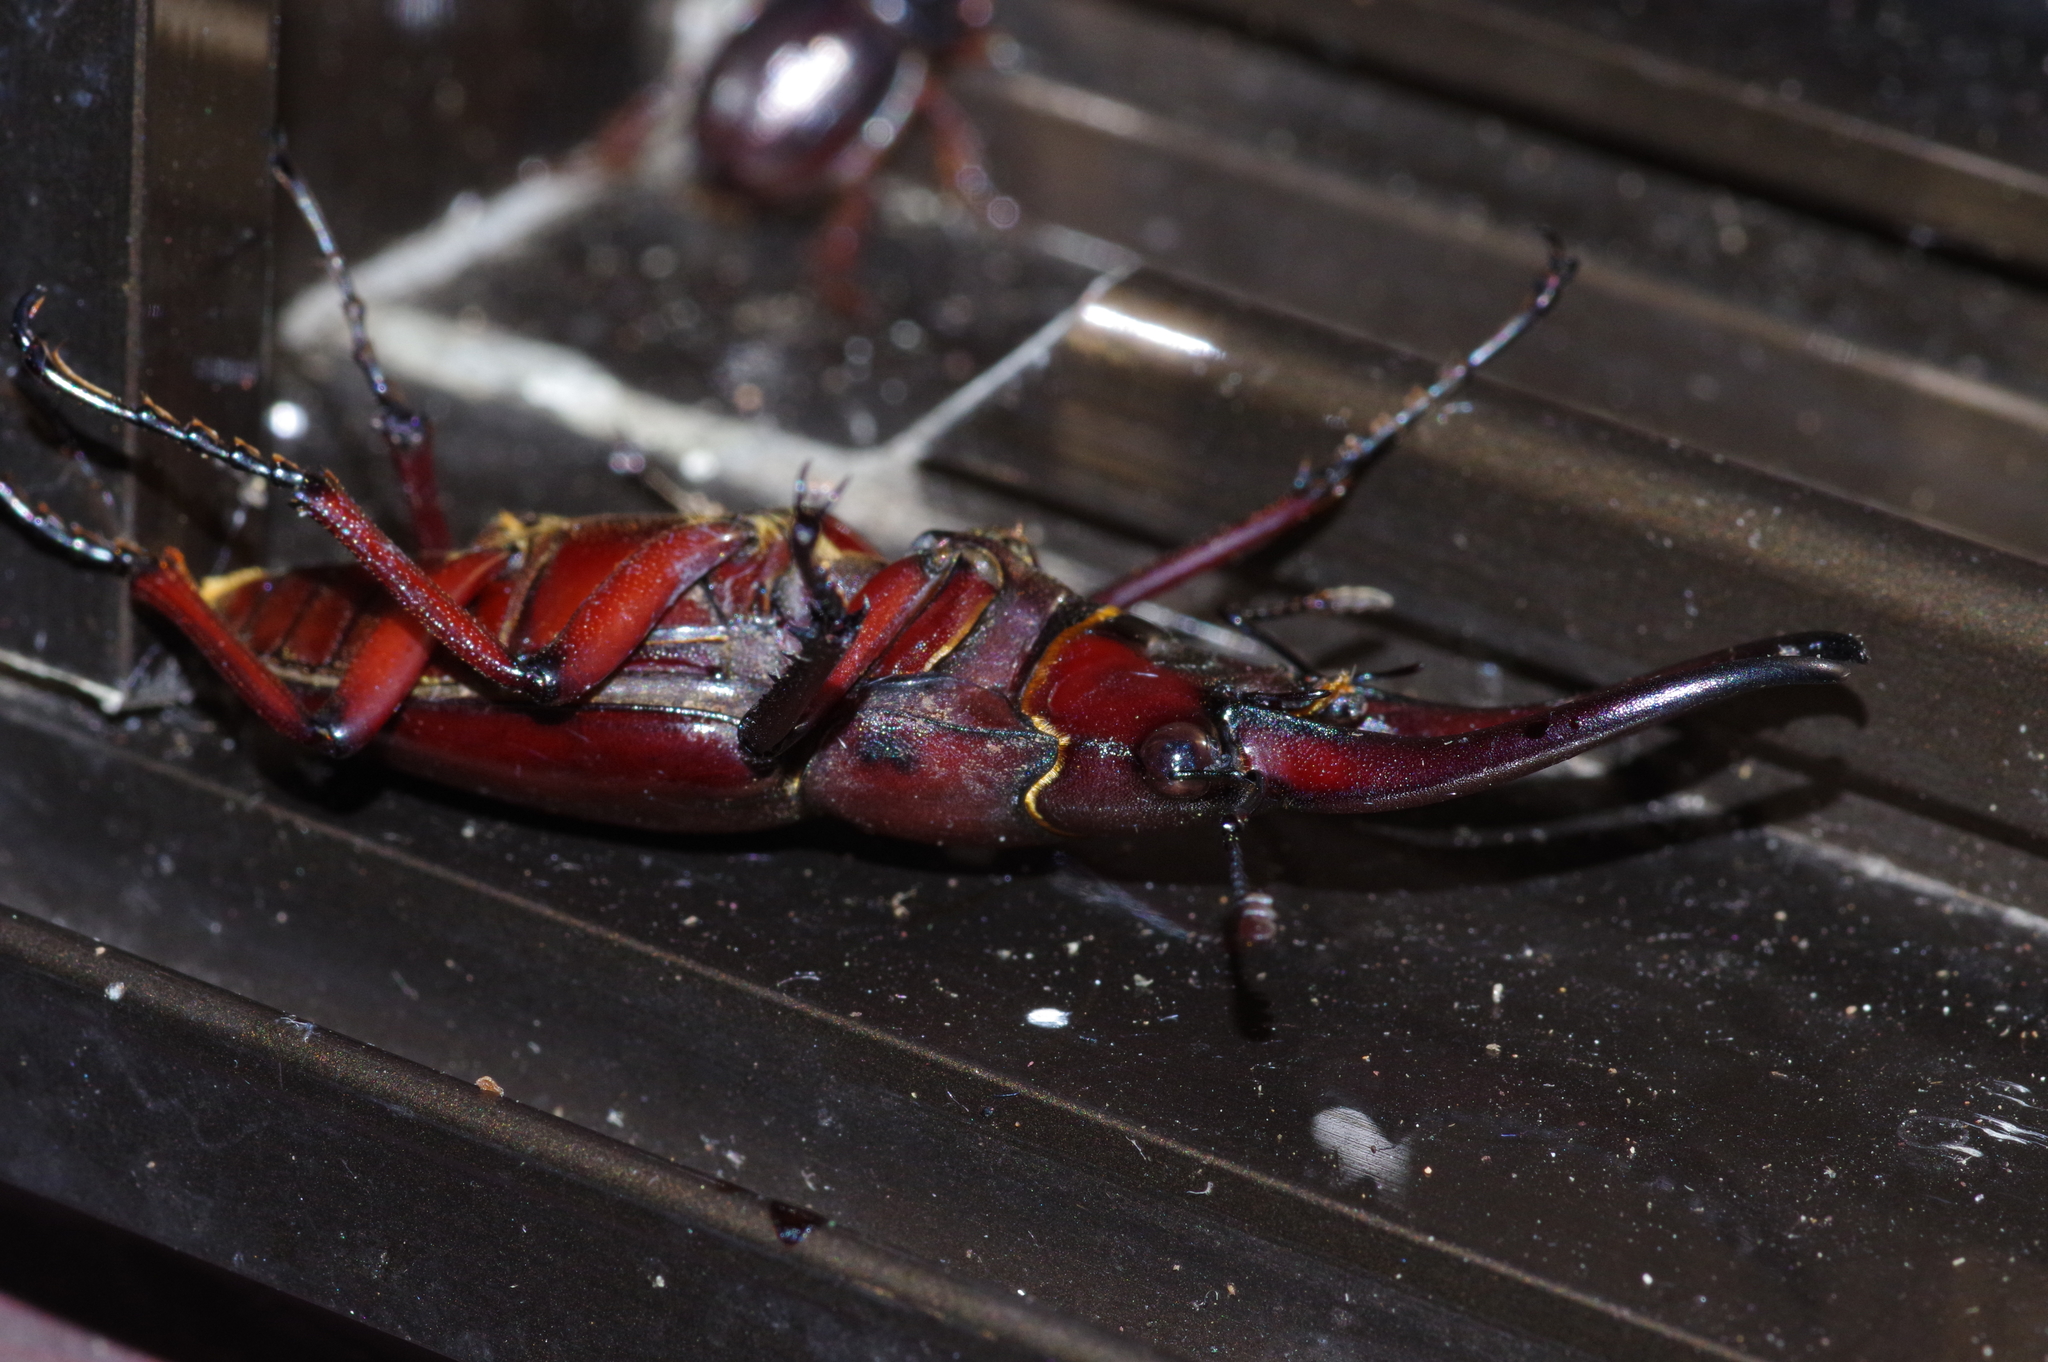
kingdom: Animalia
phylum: Arthropoda
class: Insecta
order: Coleoptera
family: Lucanidae
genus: Prosopocoilus
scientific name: Prosopocoilus dissimilis
